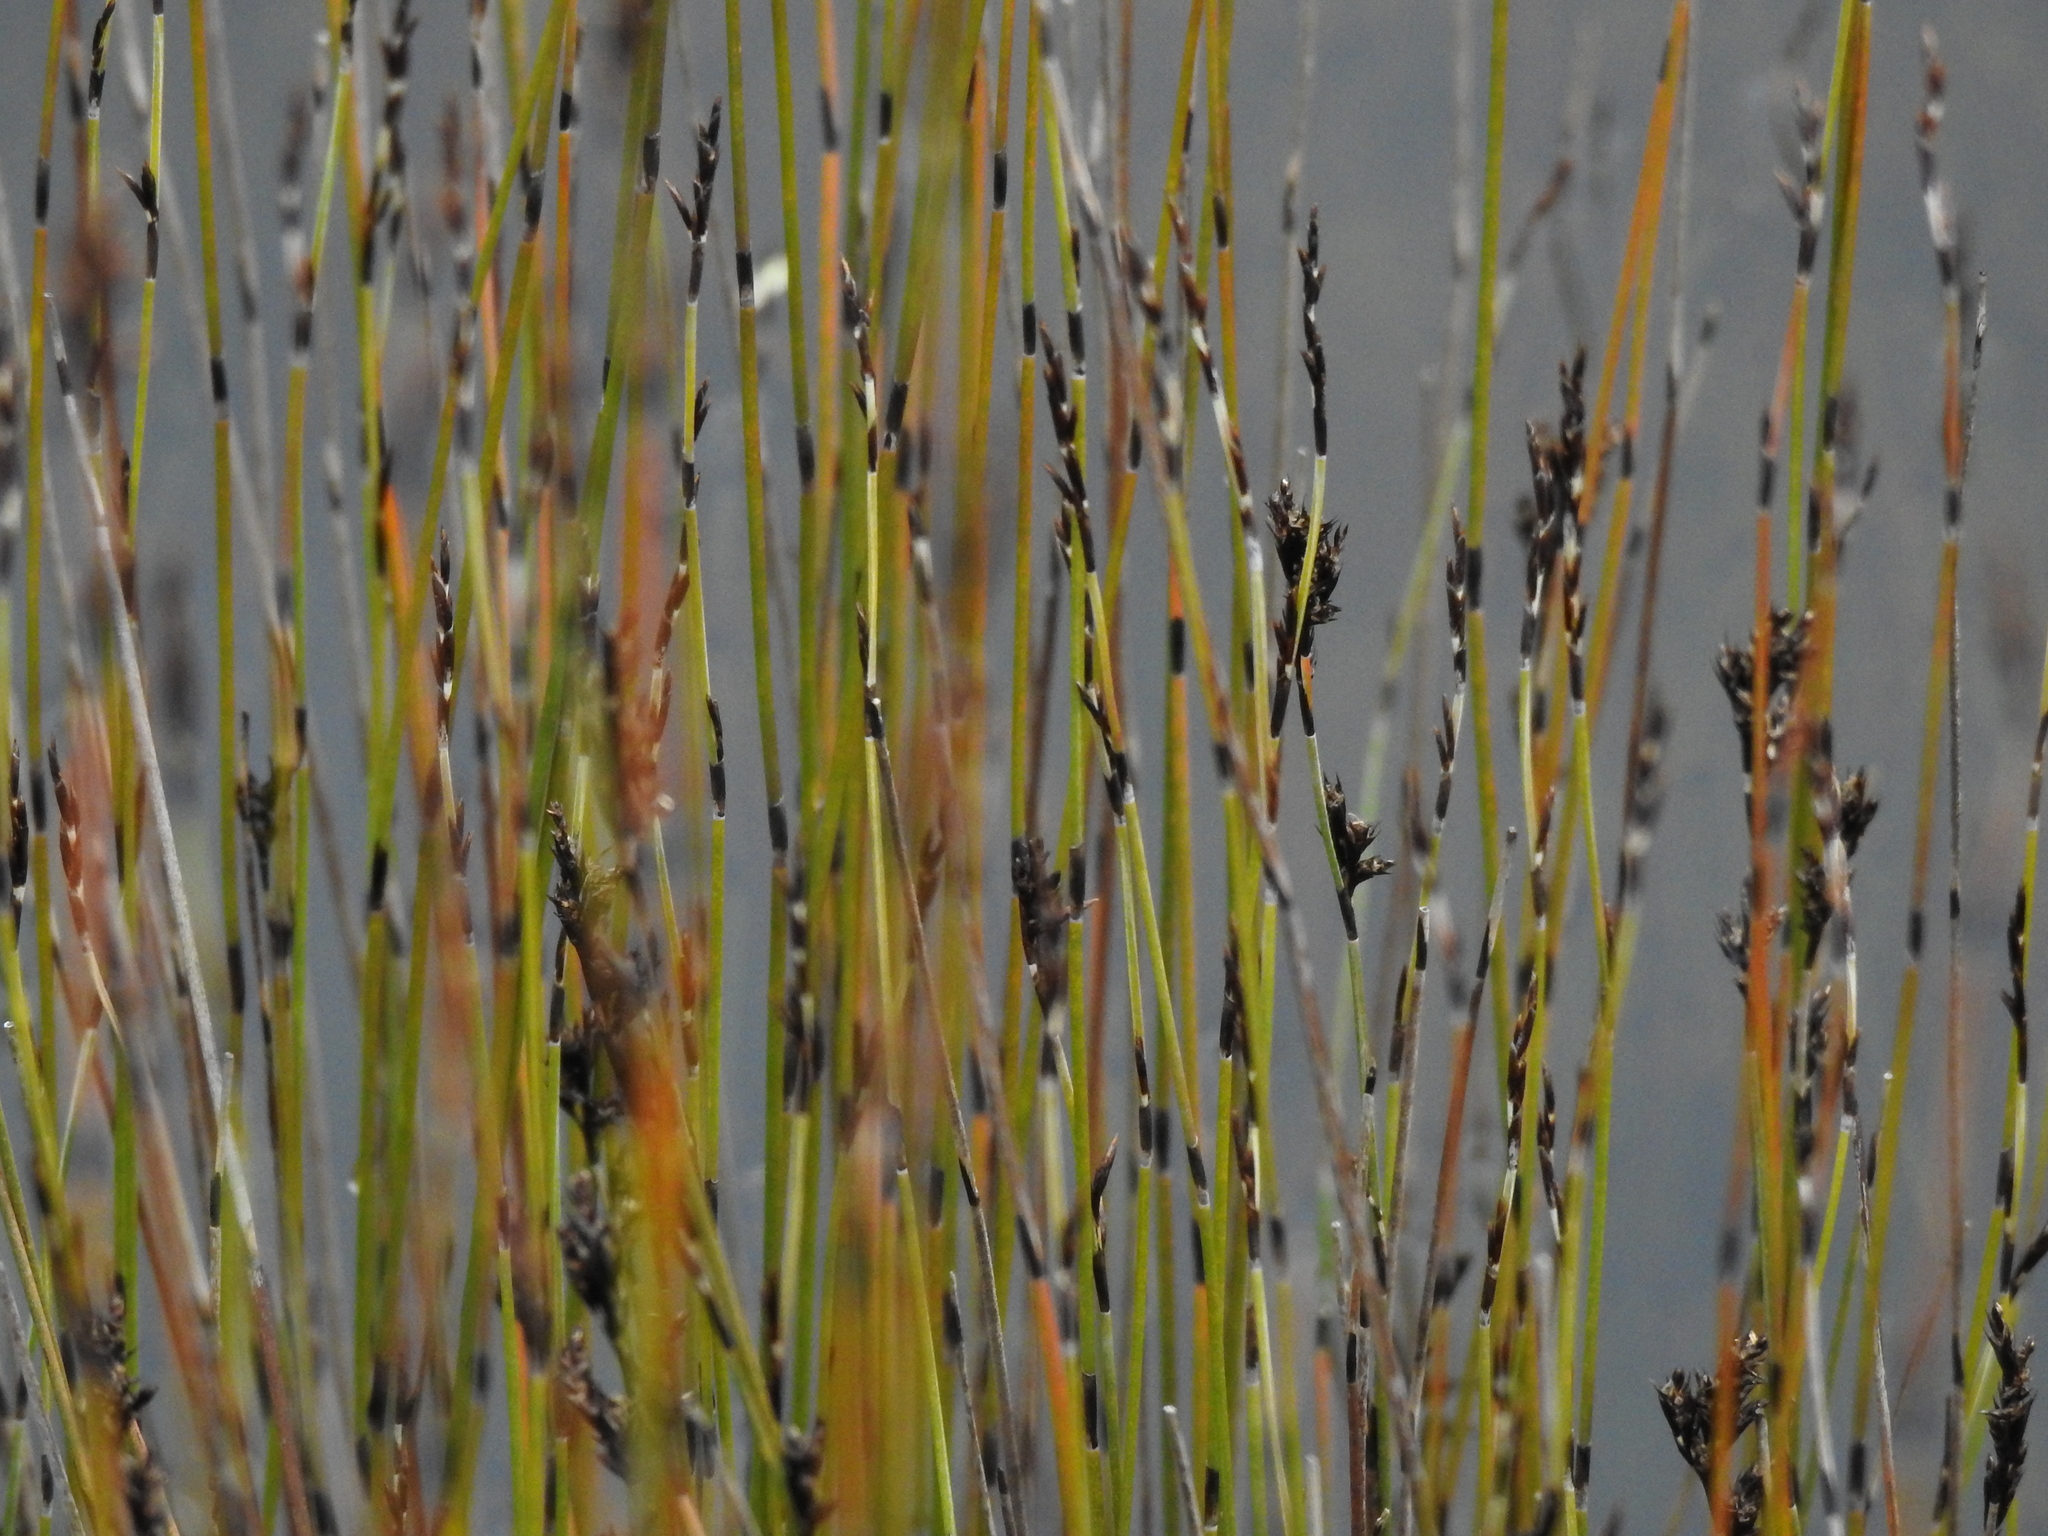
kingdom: Plantae
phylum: Tracheophyta
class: Liliopsida
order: Poales
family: Restionaceae
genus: Apodasmia
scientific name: Apodasmia similis
